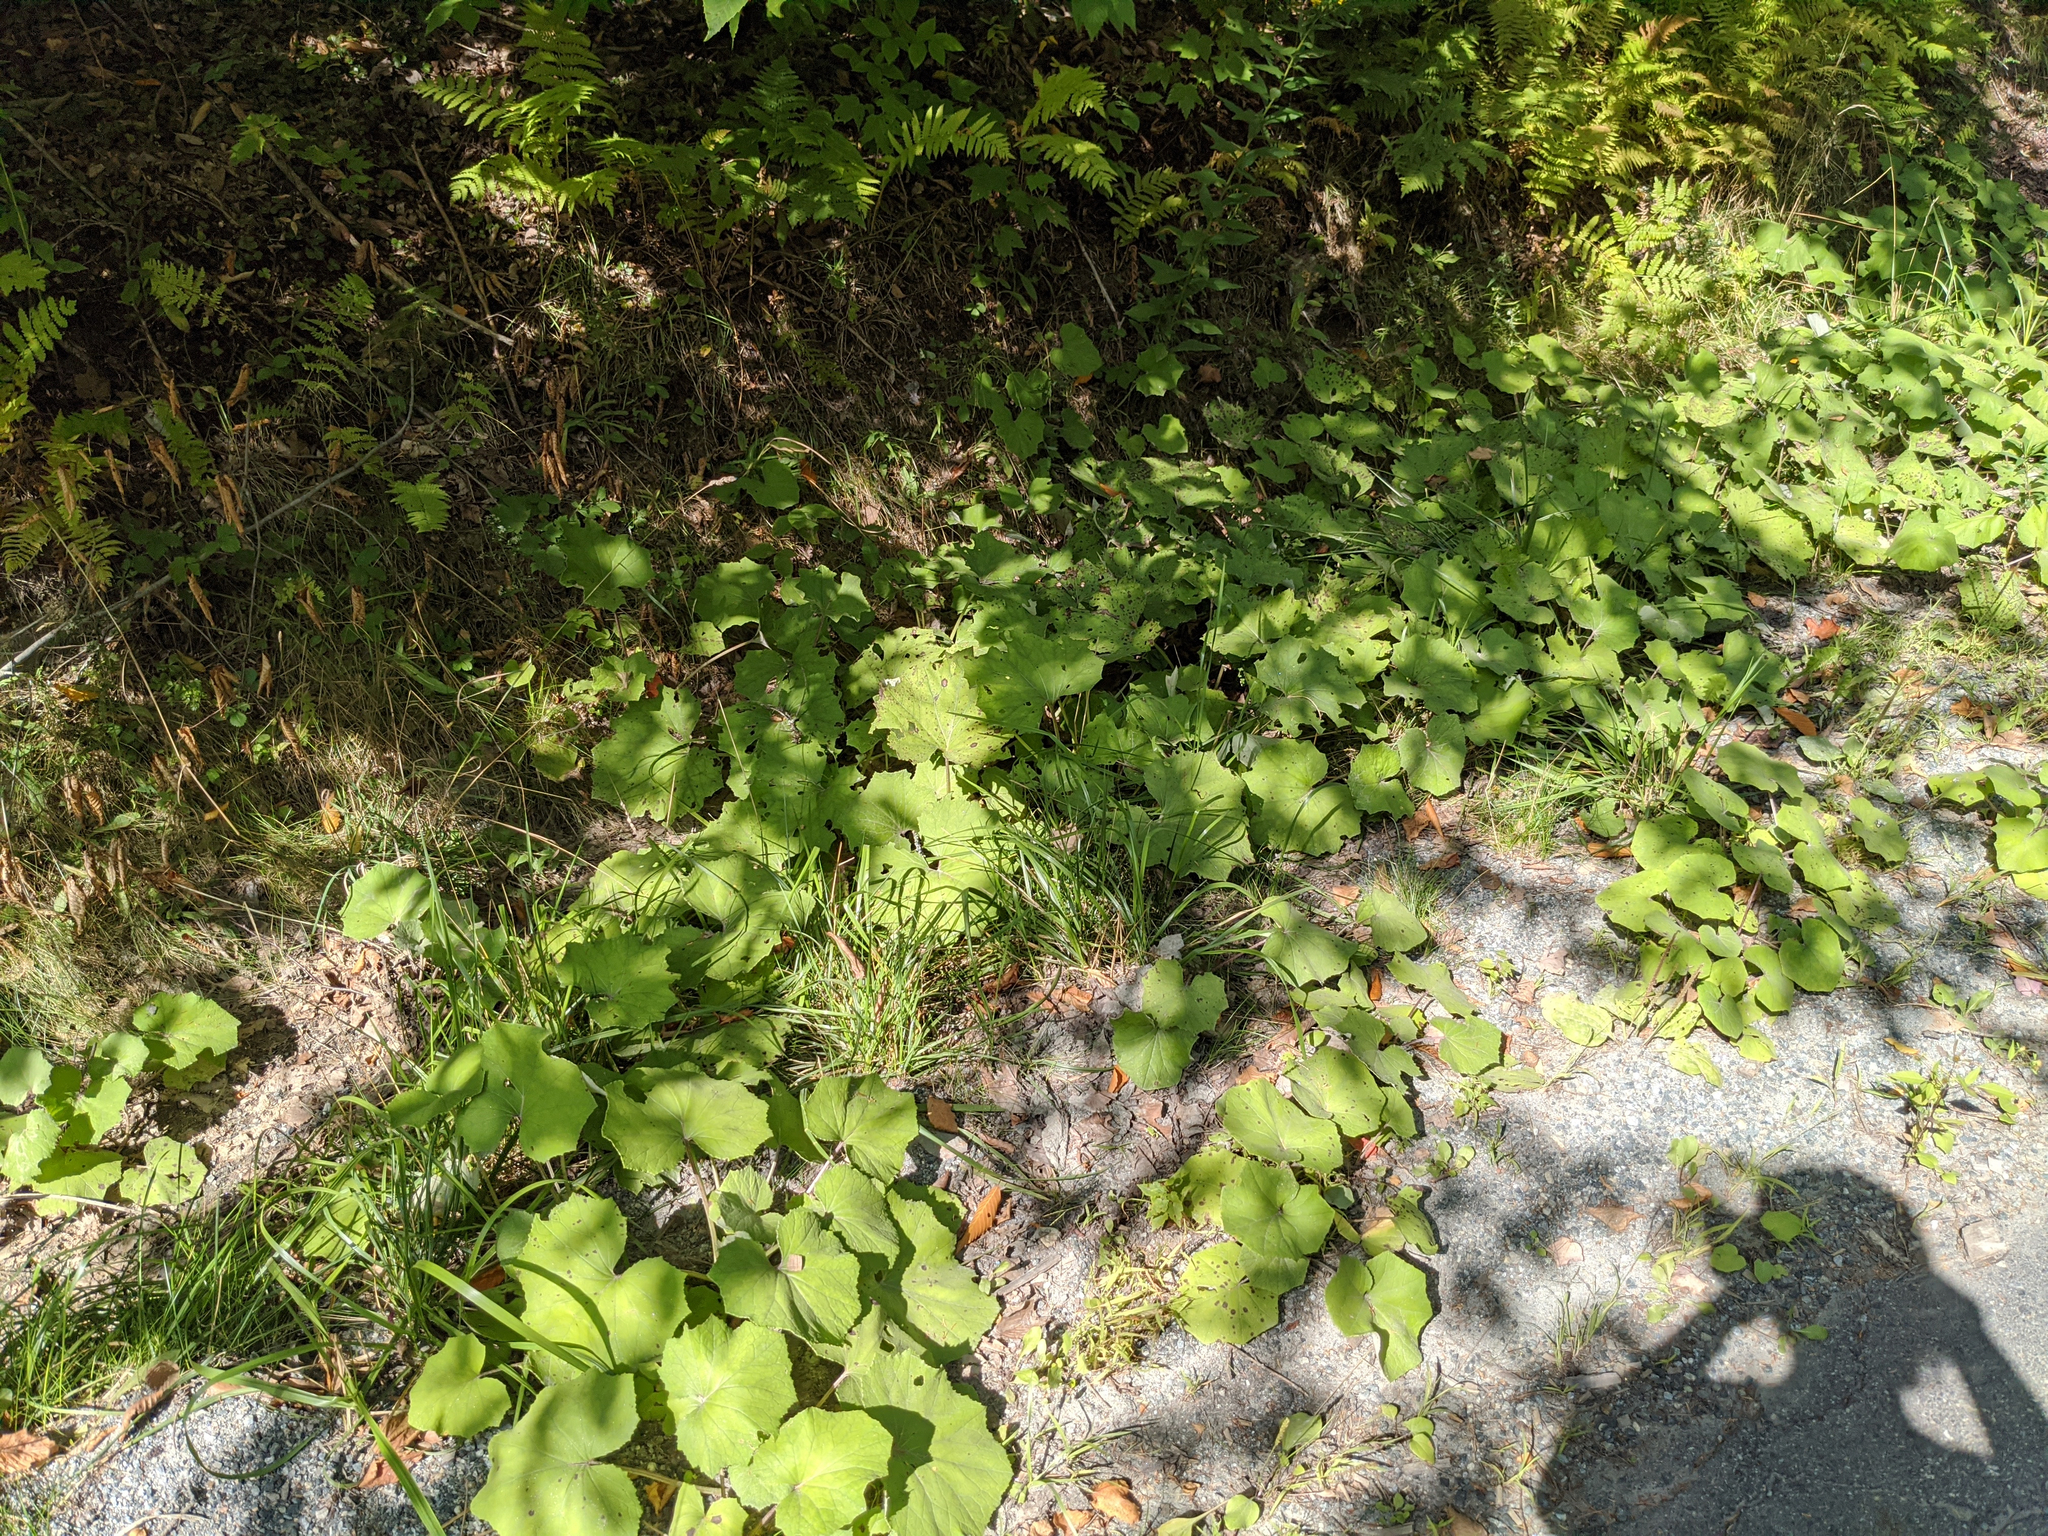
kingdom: Plantae
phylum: Tracheophyta
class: Magnoliopsida
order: Asterales
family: Asteraceae
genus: Tussilago
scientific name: Tussilago farfara
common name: Coltsfoot
